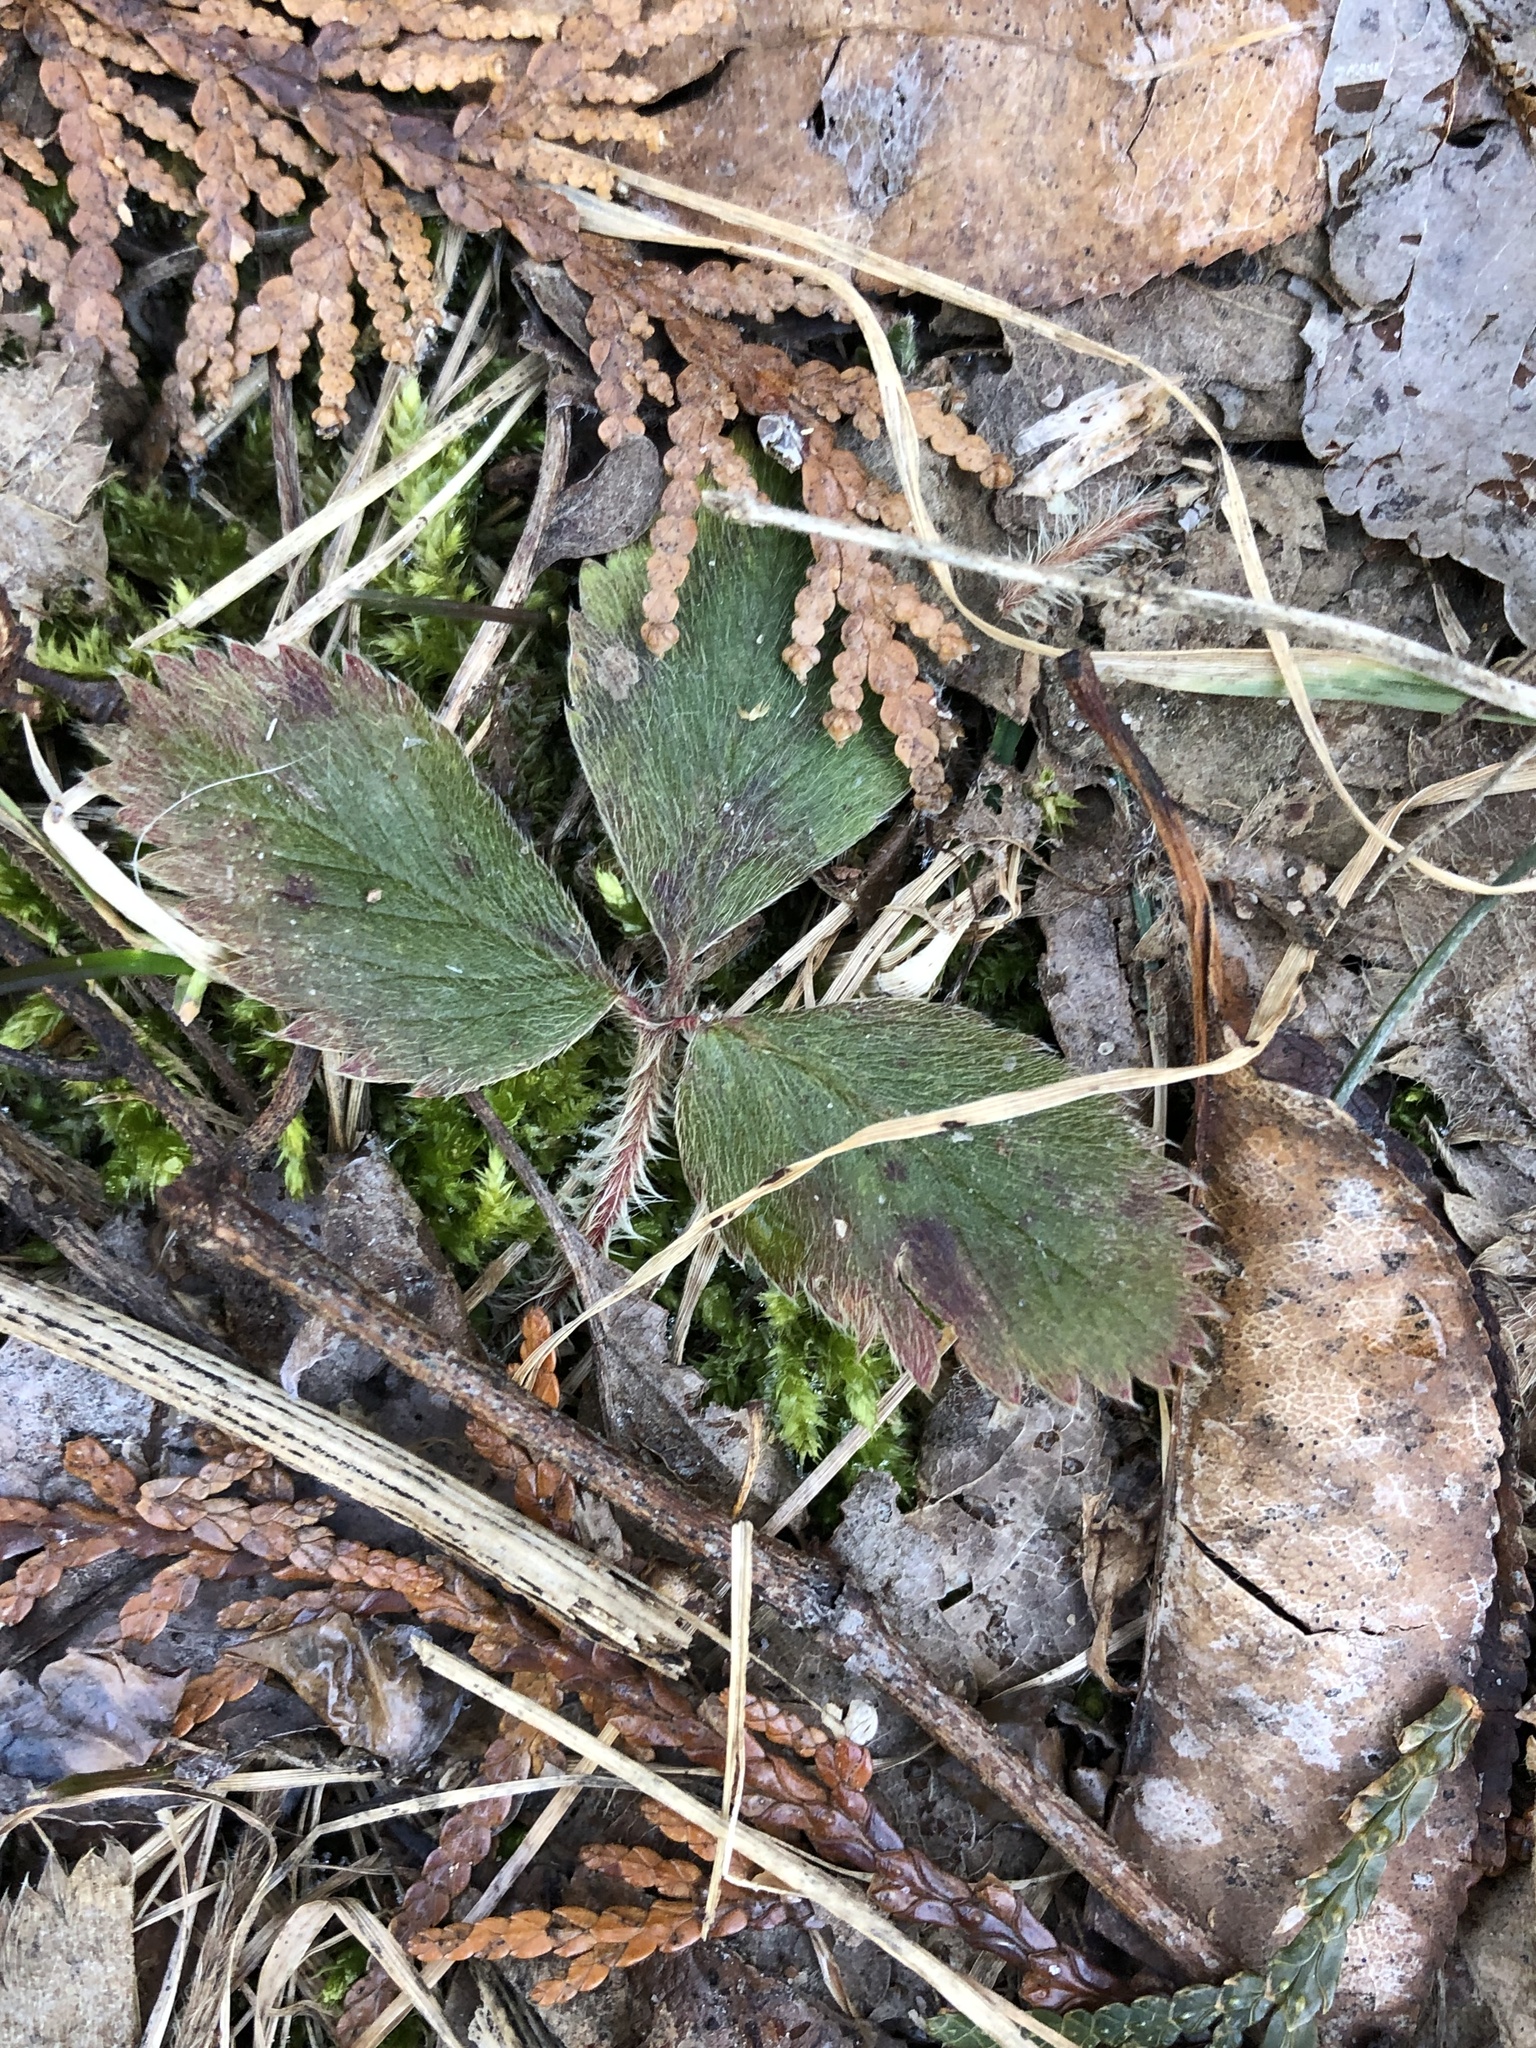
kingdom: Plantae
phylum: Tracheophyta
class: Magnoliopsida
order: Rosales
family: Rosaceae
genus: Fragaria
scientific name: Fragaria virginiana
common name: Thickleaved wild strawberry
